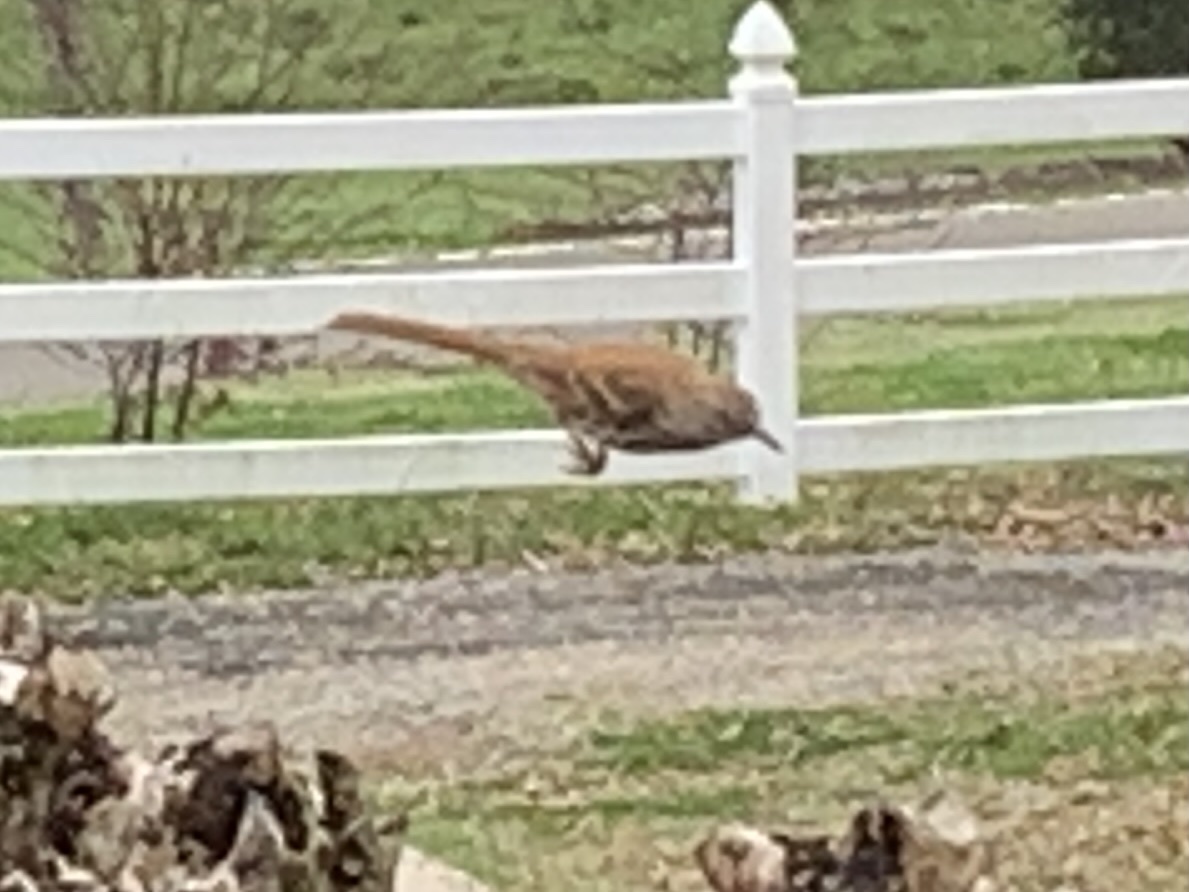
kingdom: Animalia
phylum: Chordata
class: Aves
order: Passeriformes
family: Mimidae
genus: Toxostoma
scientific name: Toxostoma rufum
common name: Brown thrasher
